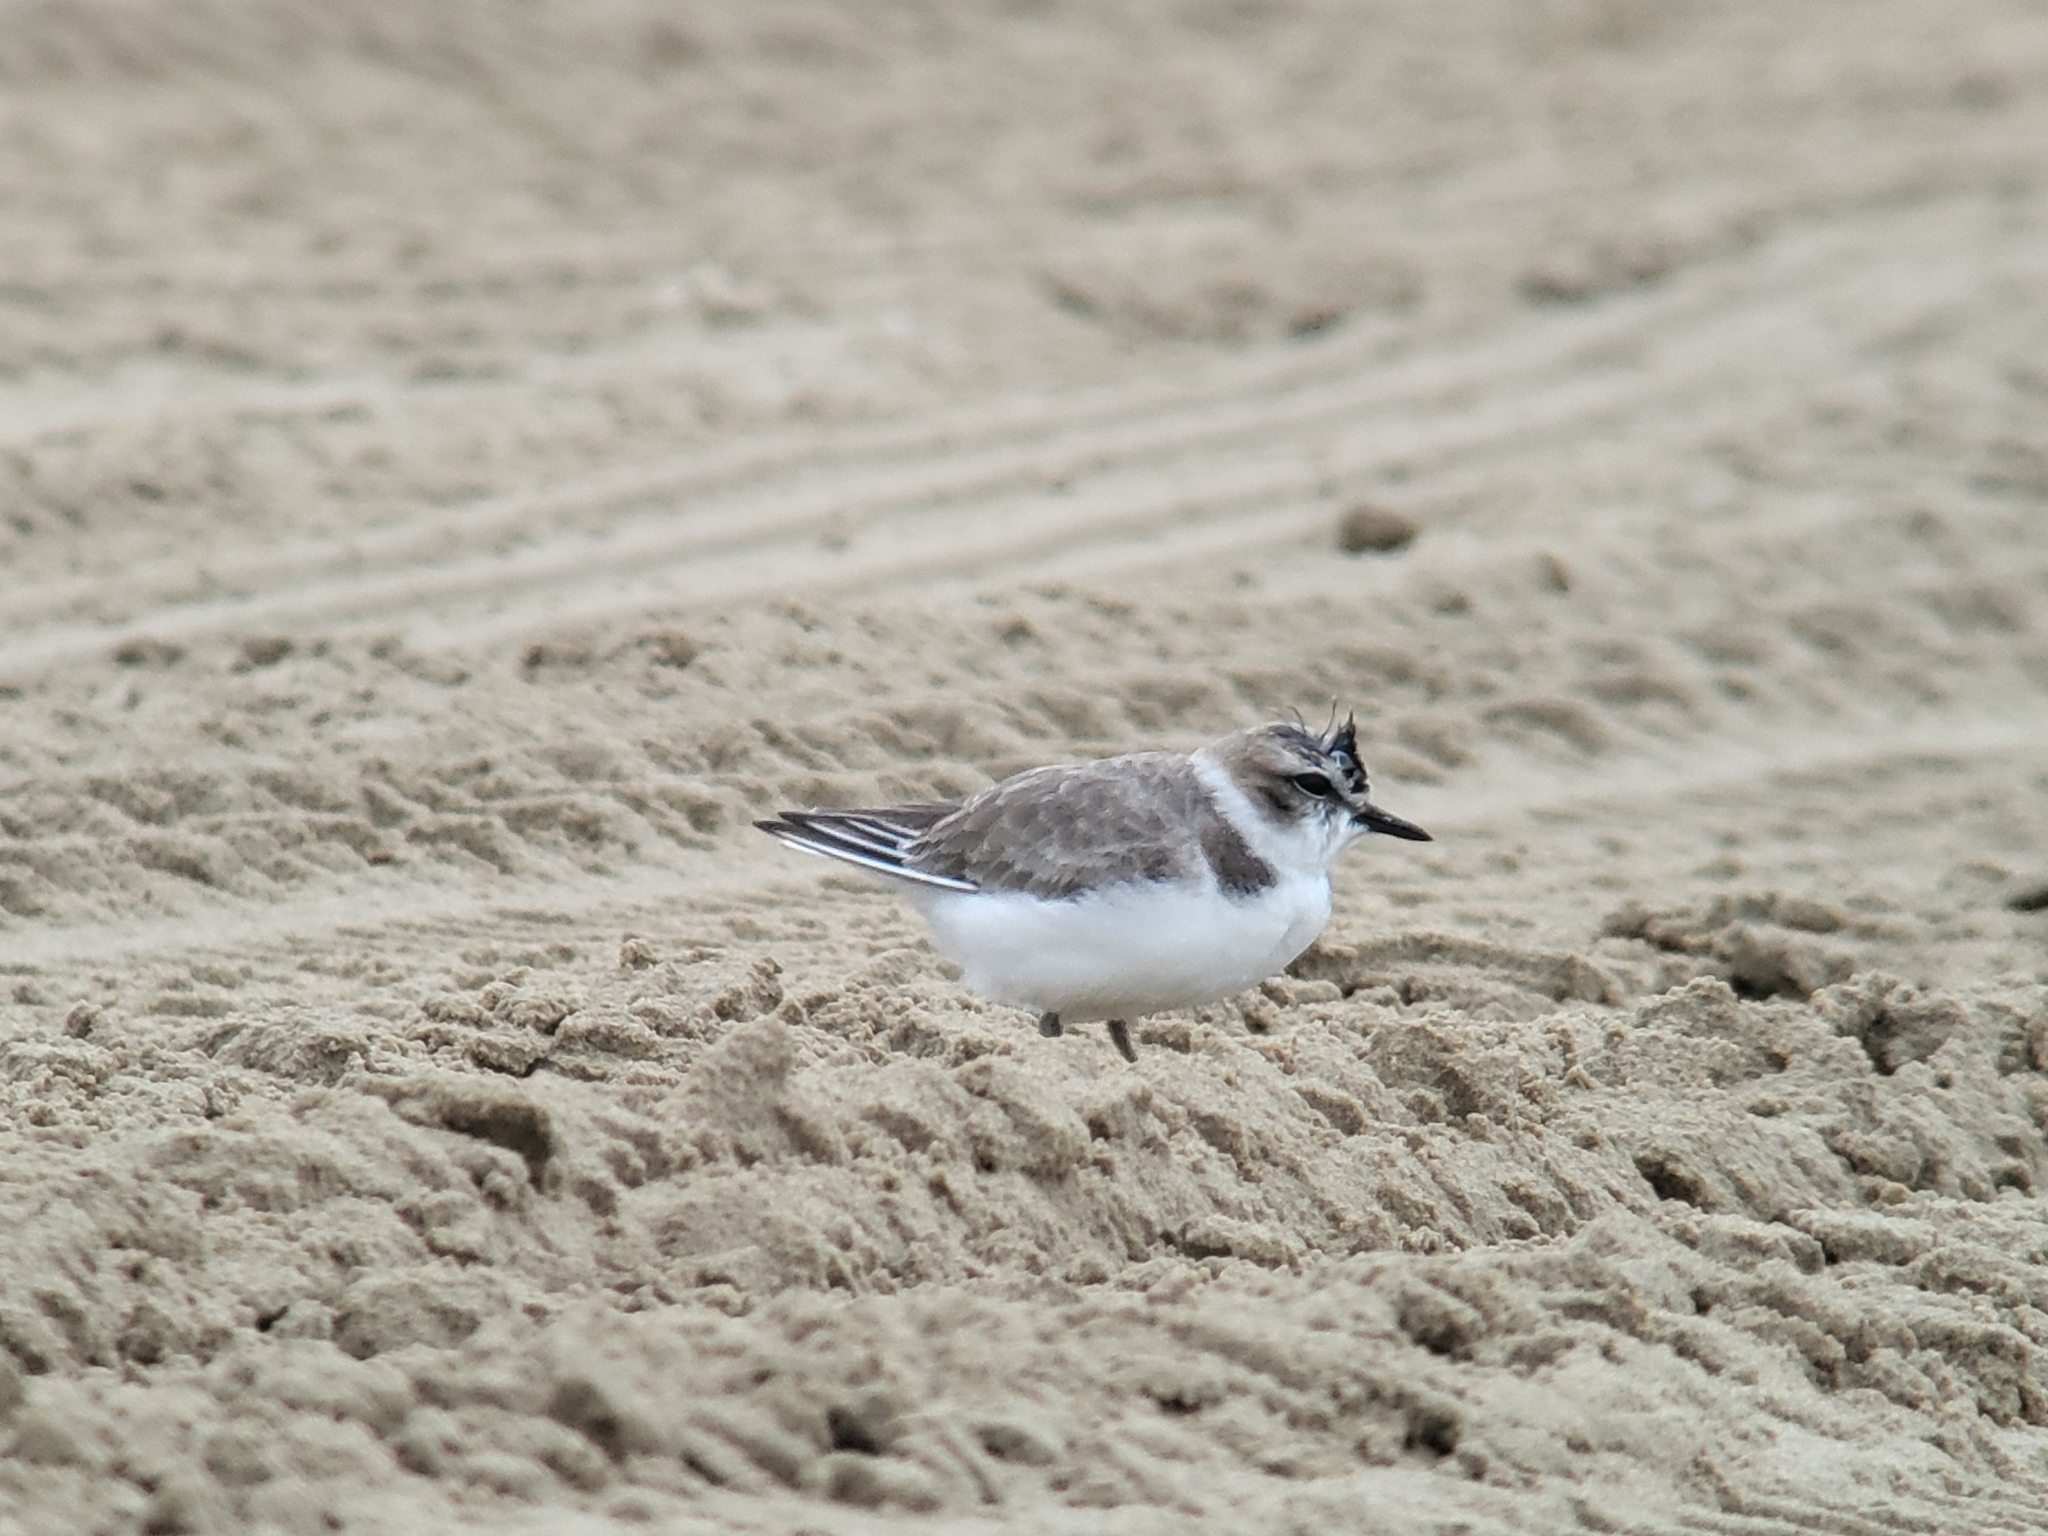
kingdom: Animalia
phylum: Chordata
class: Aves
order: Charadriiformes
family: Charadriidae
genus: Anarhynchus
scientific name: Anarhynchus
